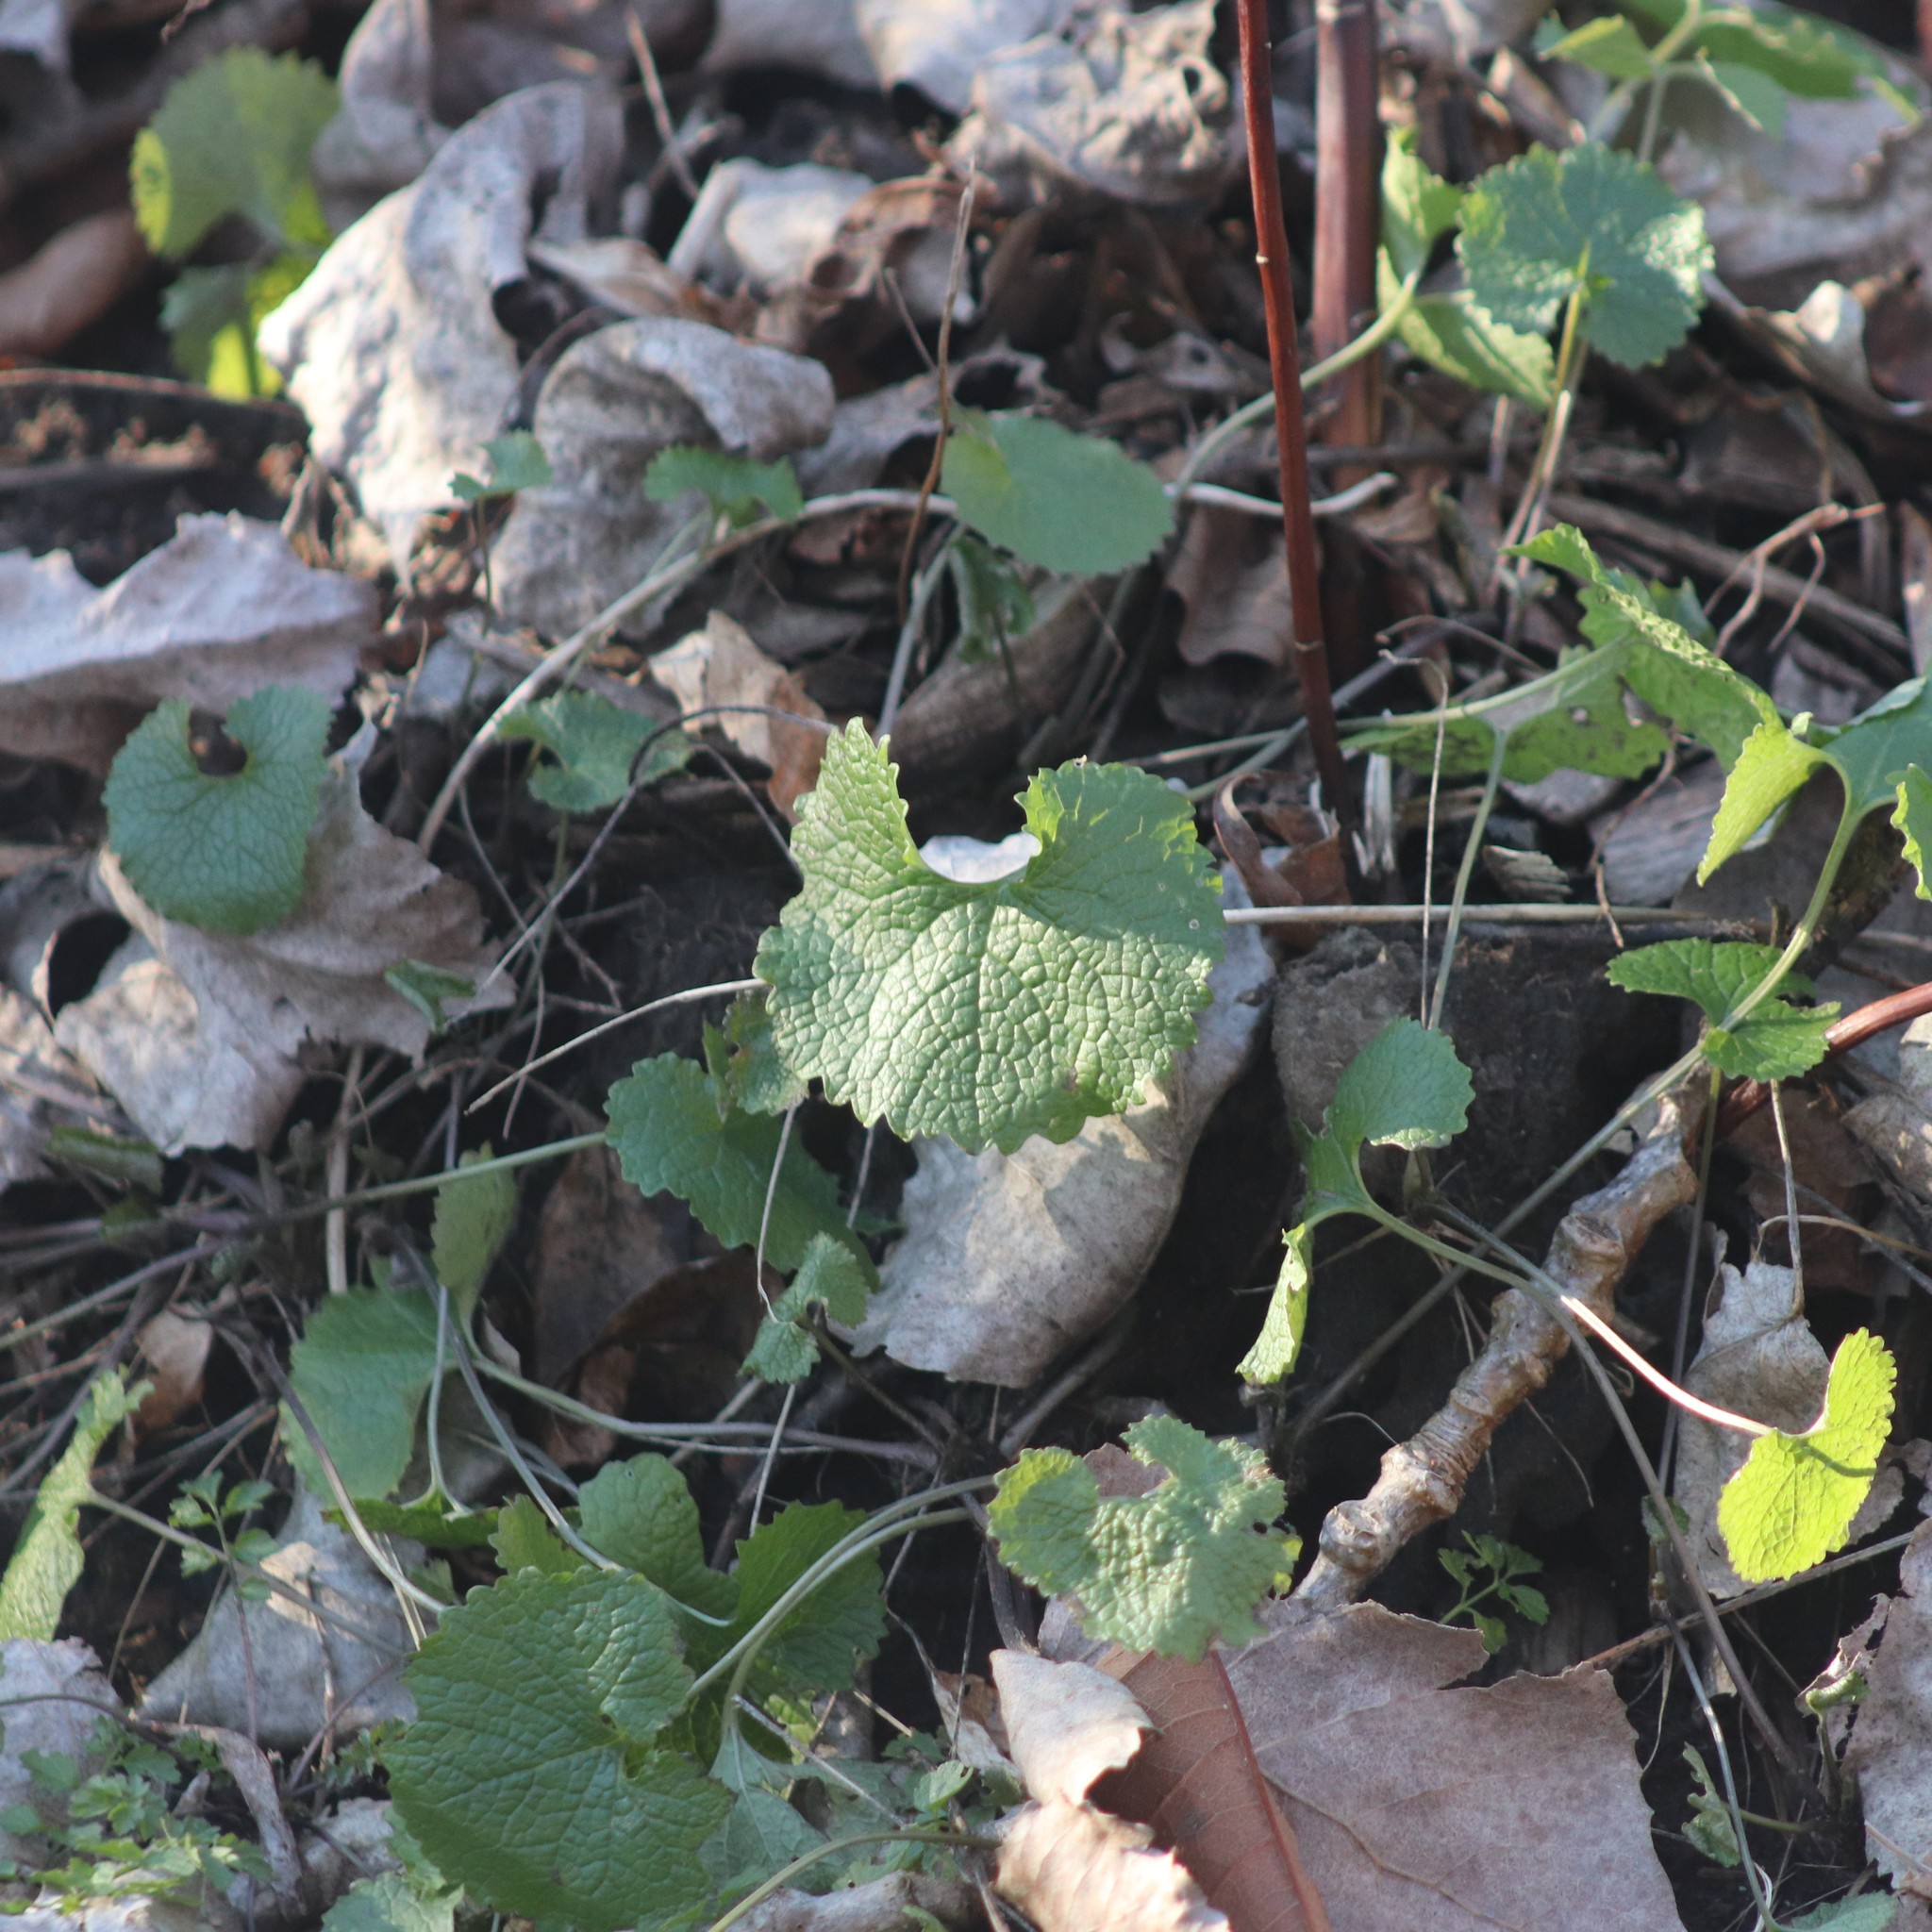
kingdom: Plantae
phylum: Tracheophyta
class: Magnoliopsida
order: Brassicales
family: Brassicaceae
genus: Alliaria
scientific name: Alliaria petiolata
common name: Garlic mustard
